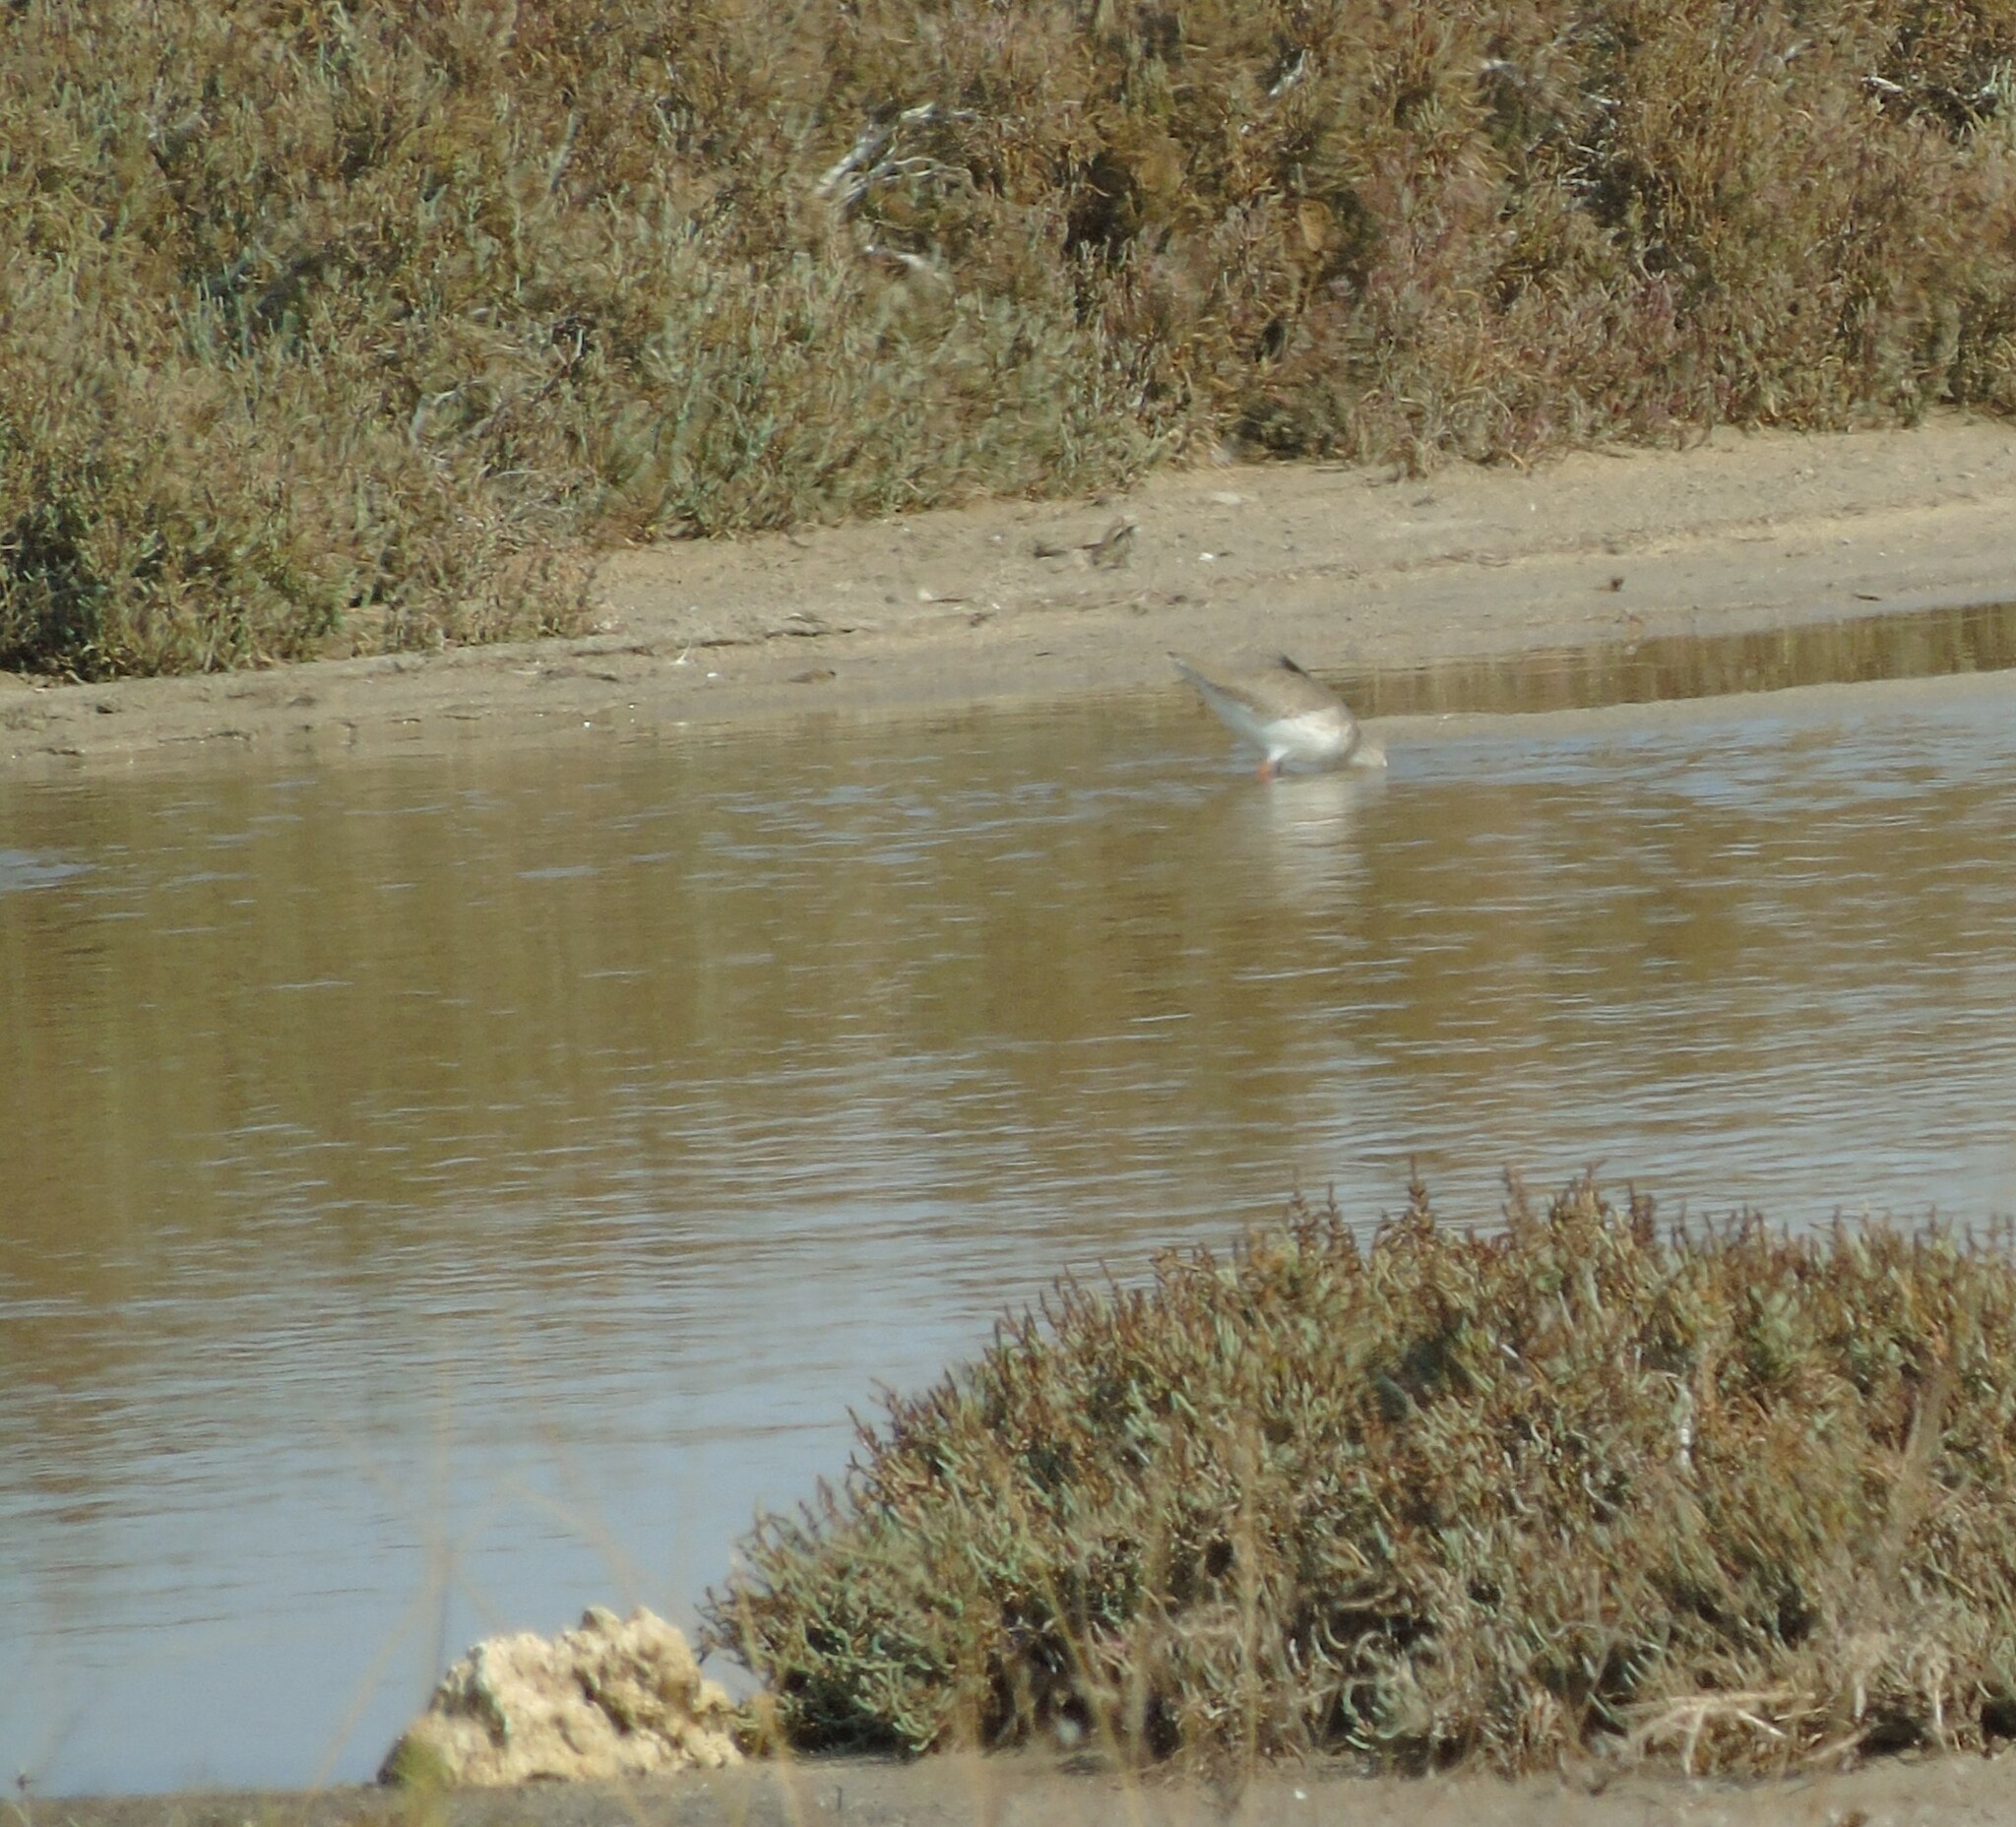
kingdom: Animalia
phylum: Chordata
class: Aves
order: Charadriiformes
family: Scolopacidae
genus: Tringa
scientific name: Tringa totanus
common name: Common redshank
